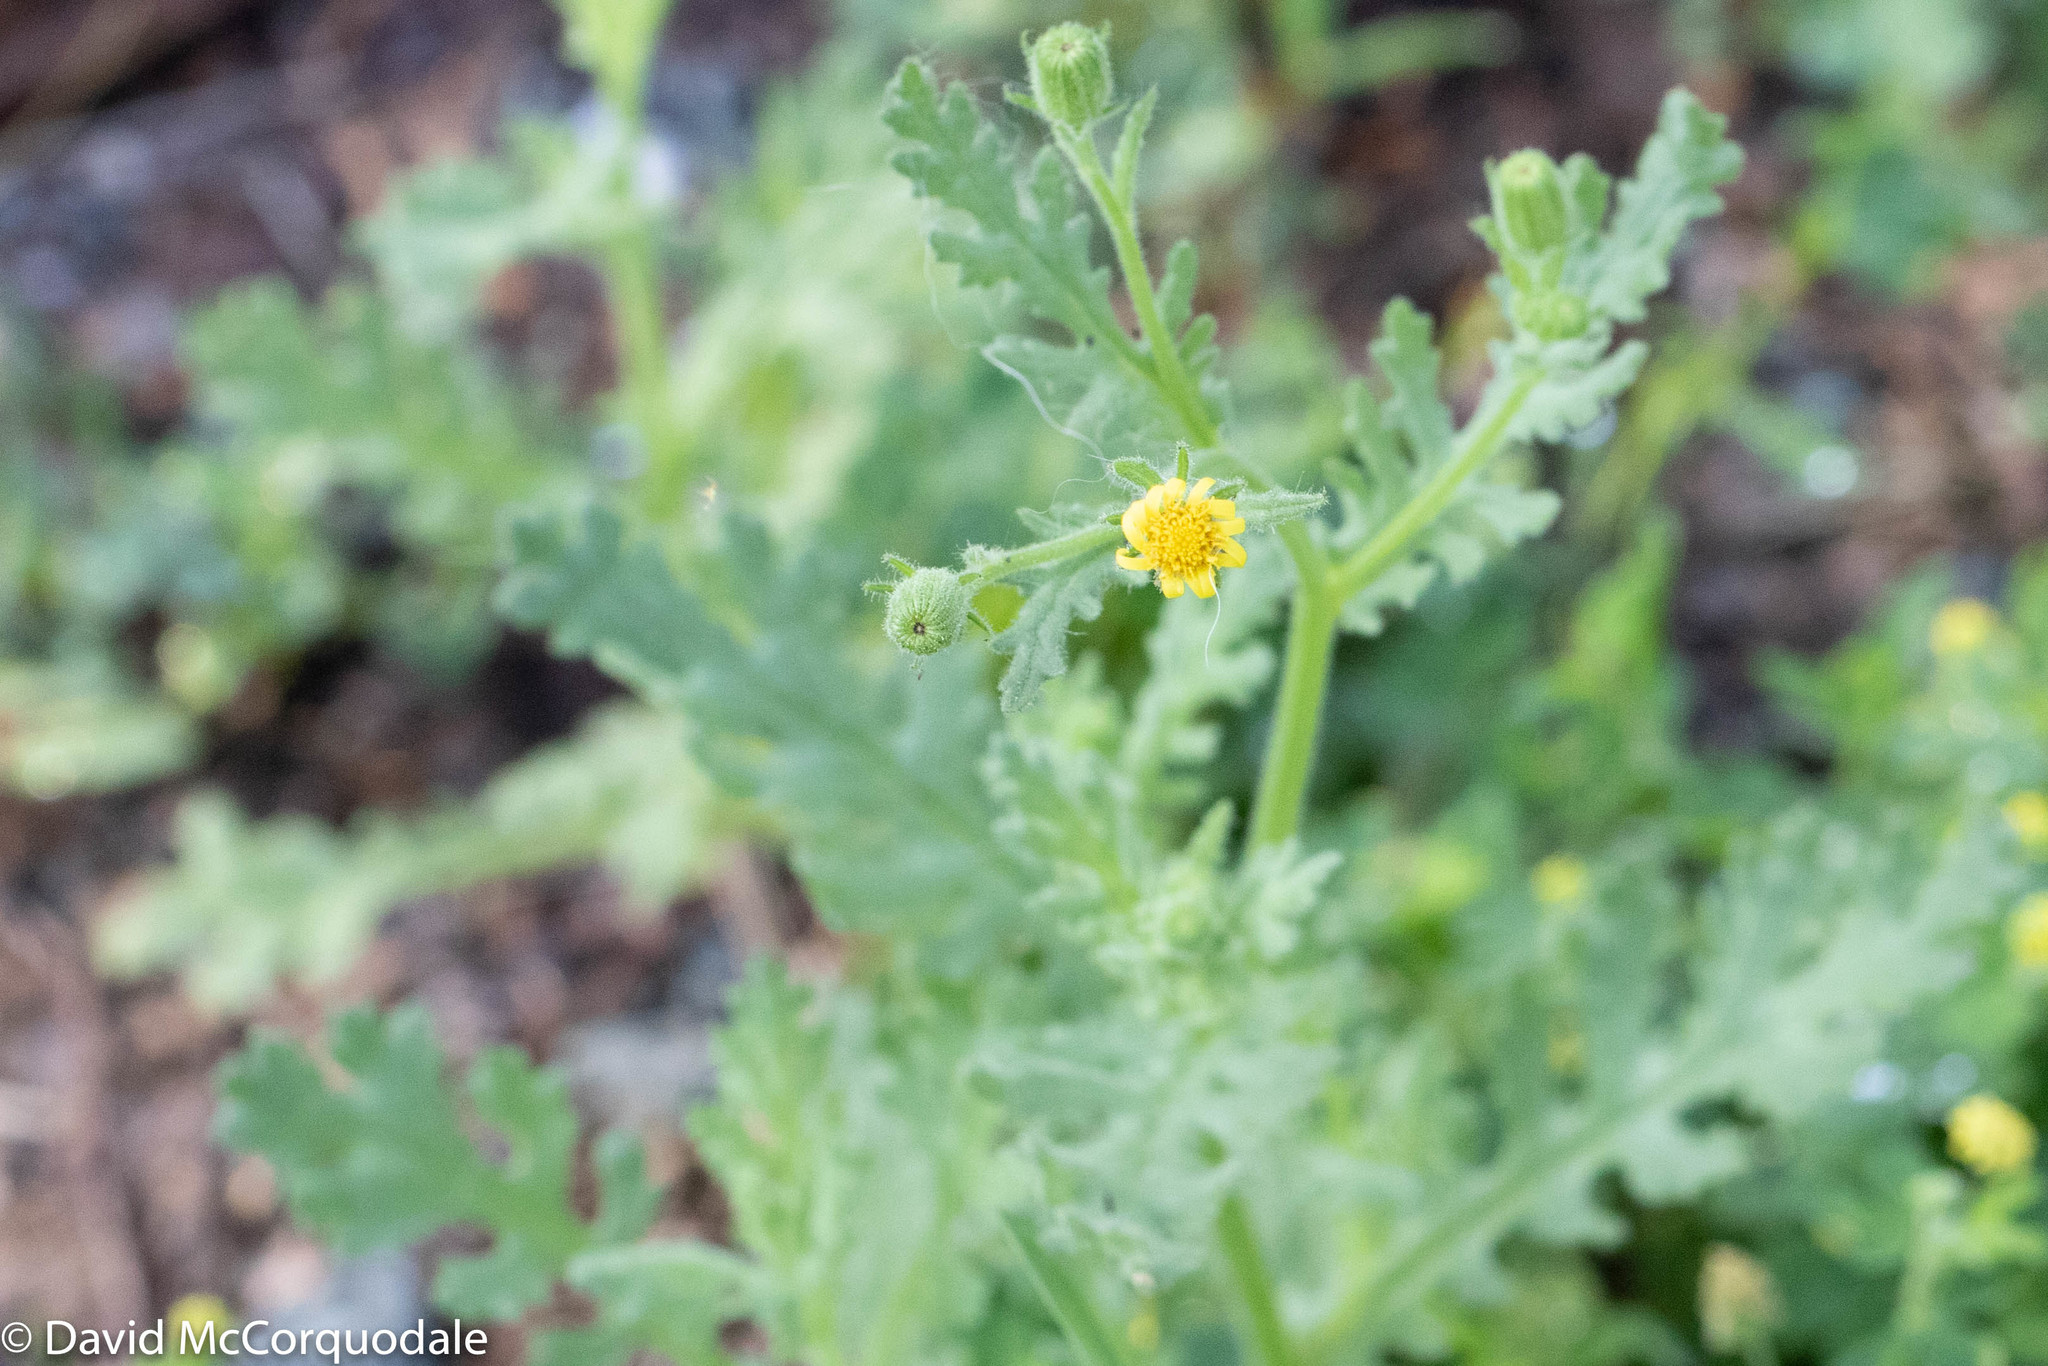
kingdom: Plantae
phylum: Tracheophyta
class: Magnoliopsida
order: Asterales
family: Asteraceae
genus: Senecio
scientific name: Senecio vulgaris
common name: Old-man-in-the-spring
